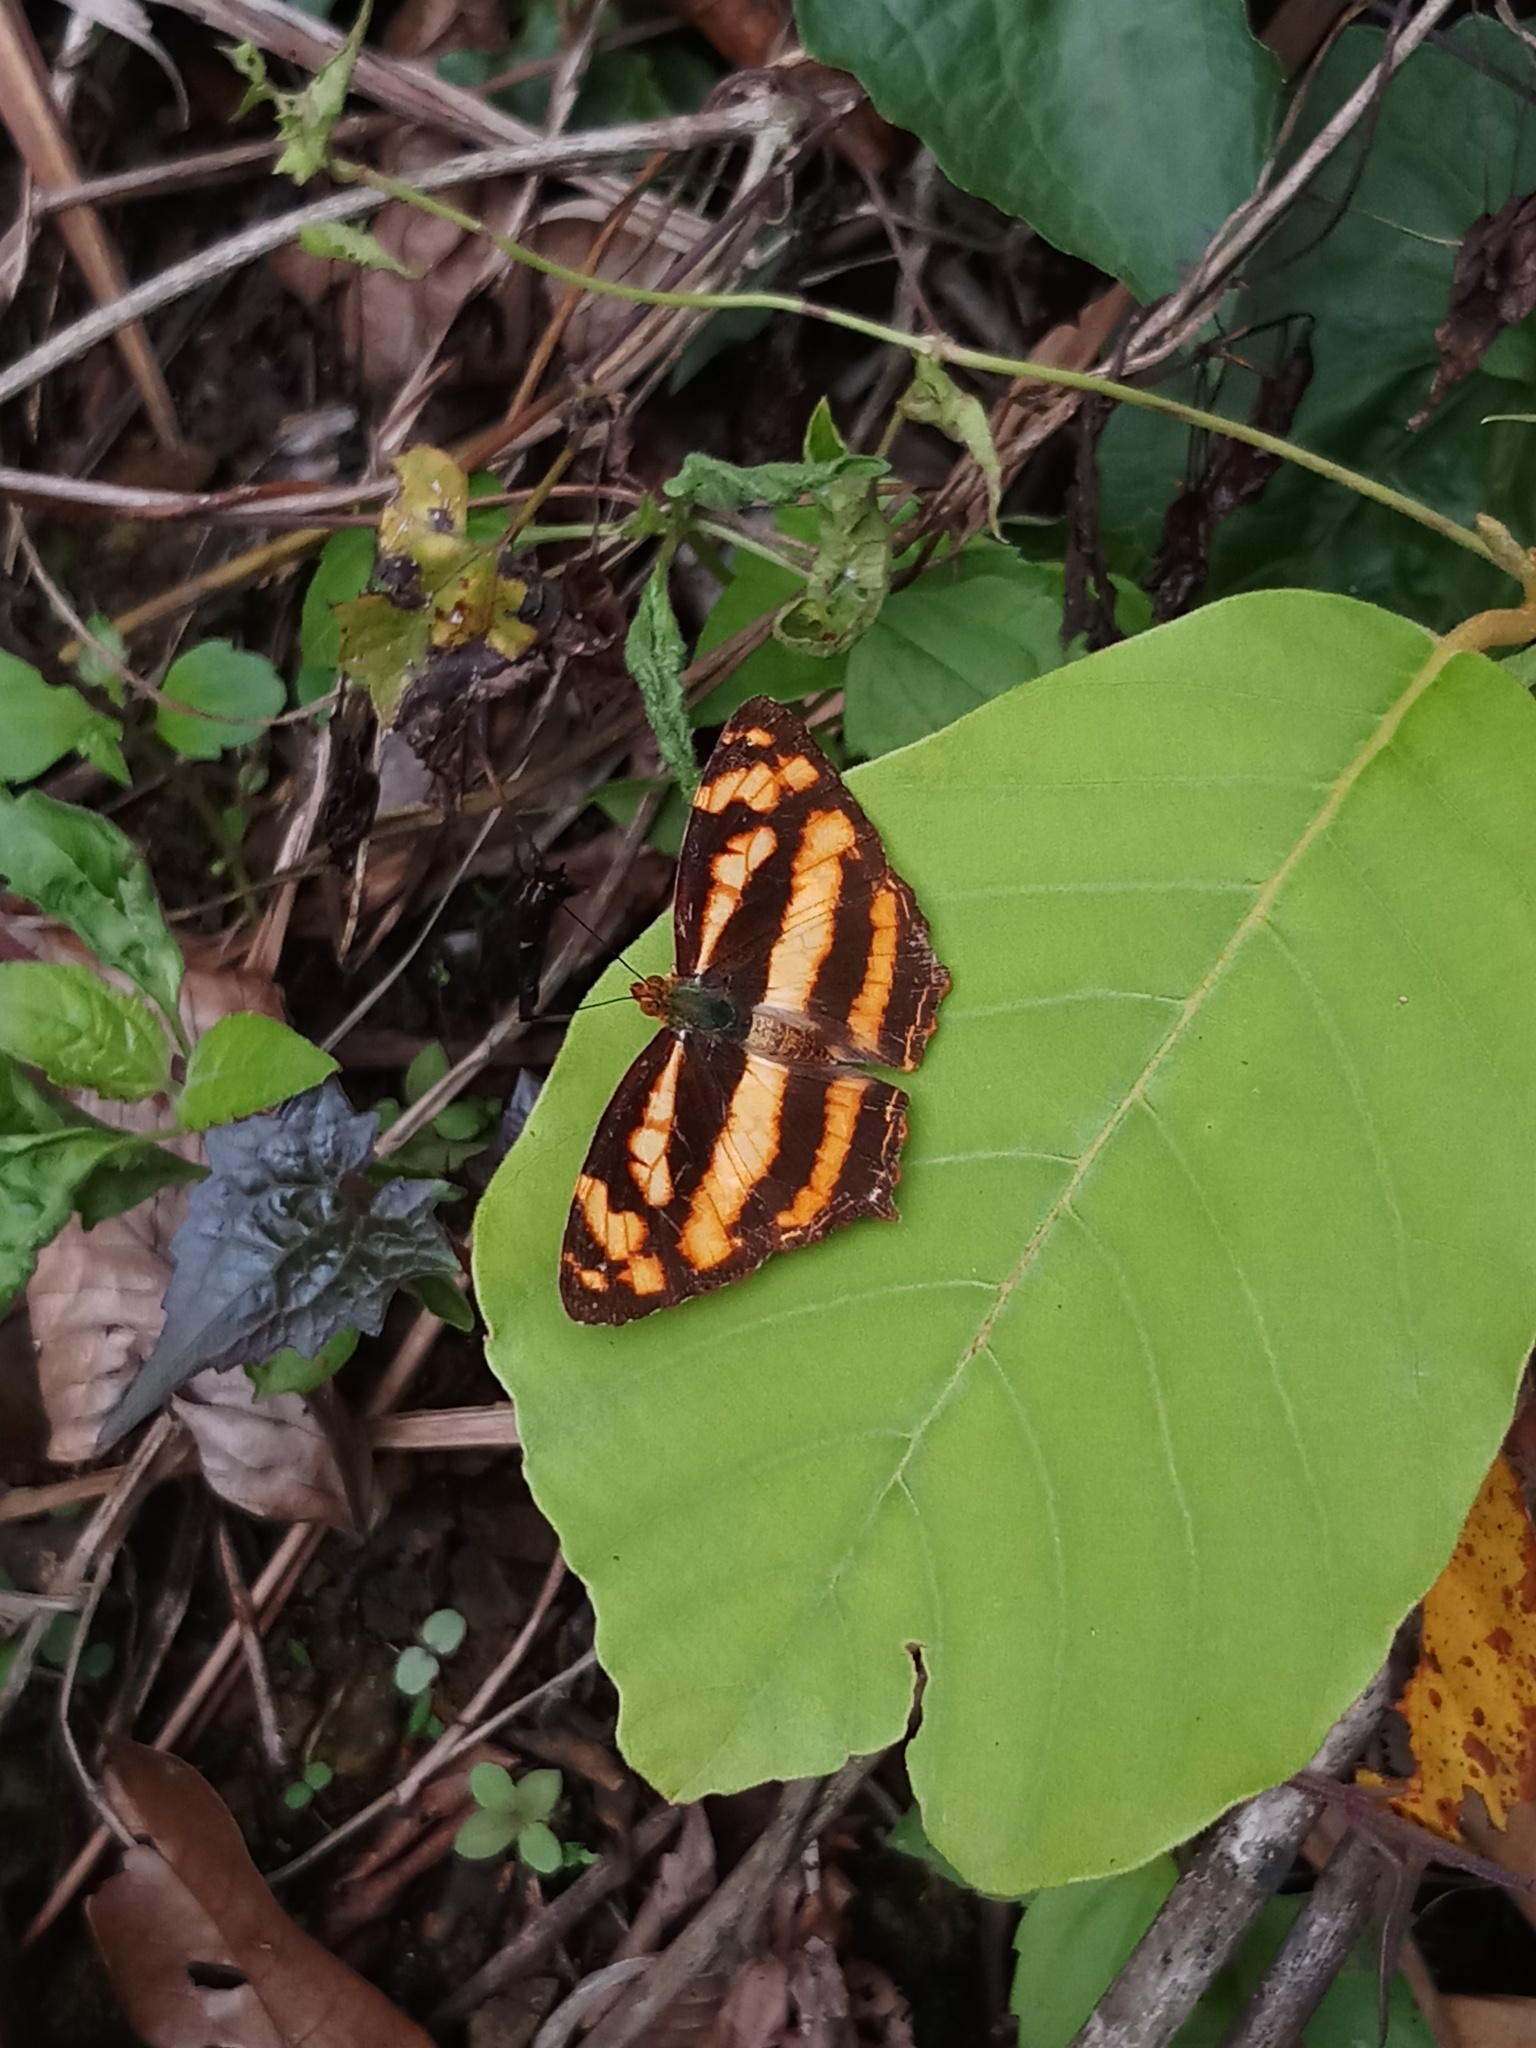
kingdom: Animalia
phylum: Arthropoda
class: Insecta
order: Lepidoptera
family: Nymphalidae
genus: Symbrenthia
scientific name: Symbrenthia hypselis
